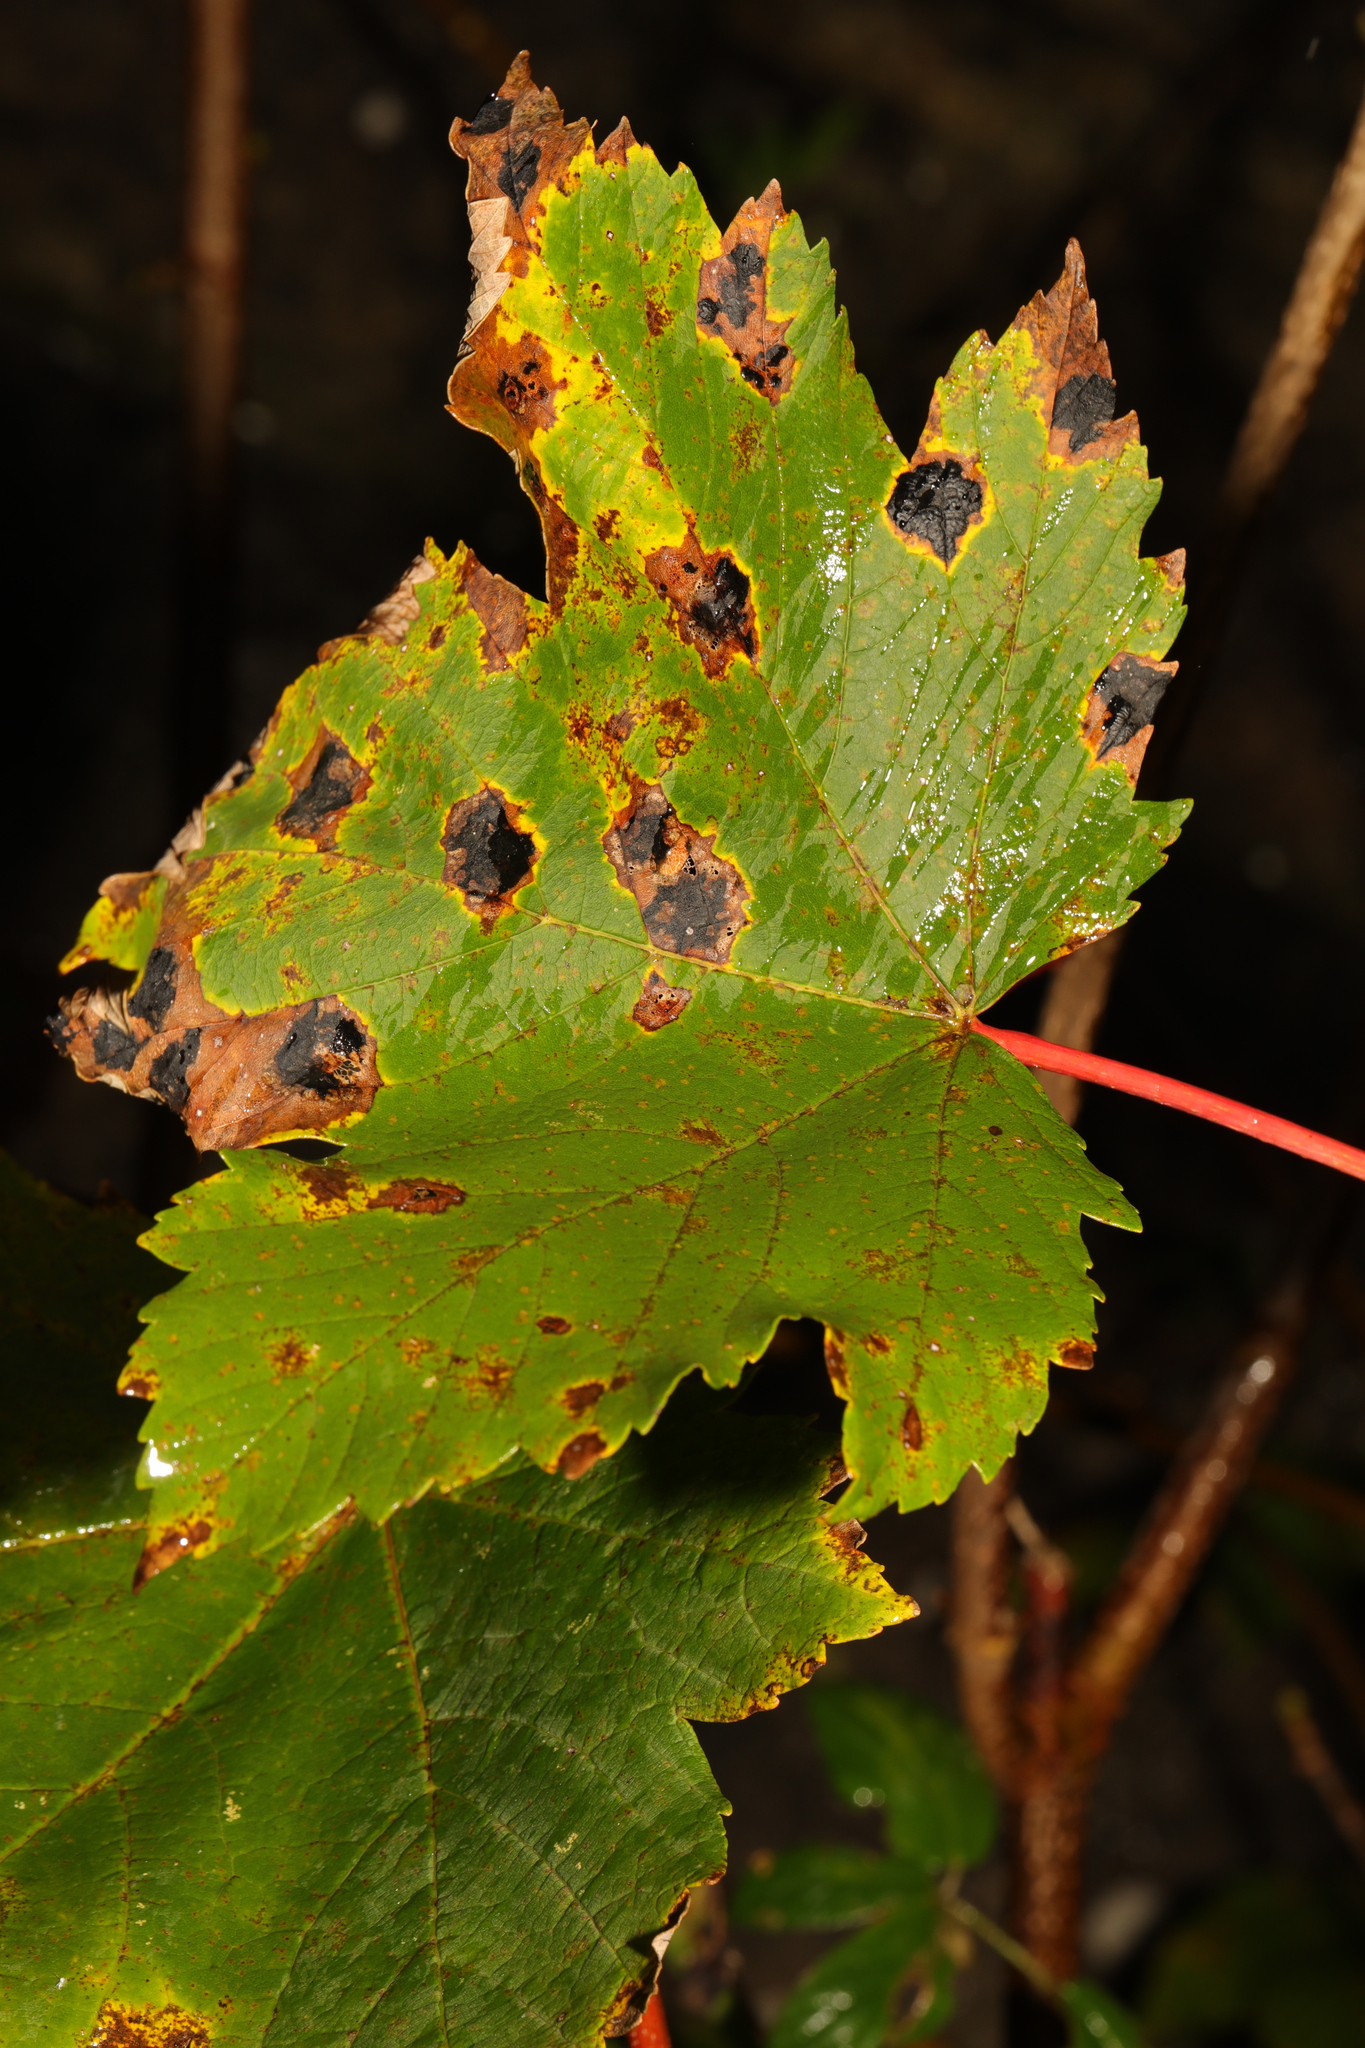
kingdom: Plantae
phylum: Tracheophyta
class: Magnoliopsida
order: Sapindales
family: Sapindaceae
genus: Acer
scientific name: Acer pseudoplatanus
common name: Sycamore
